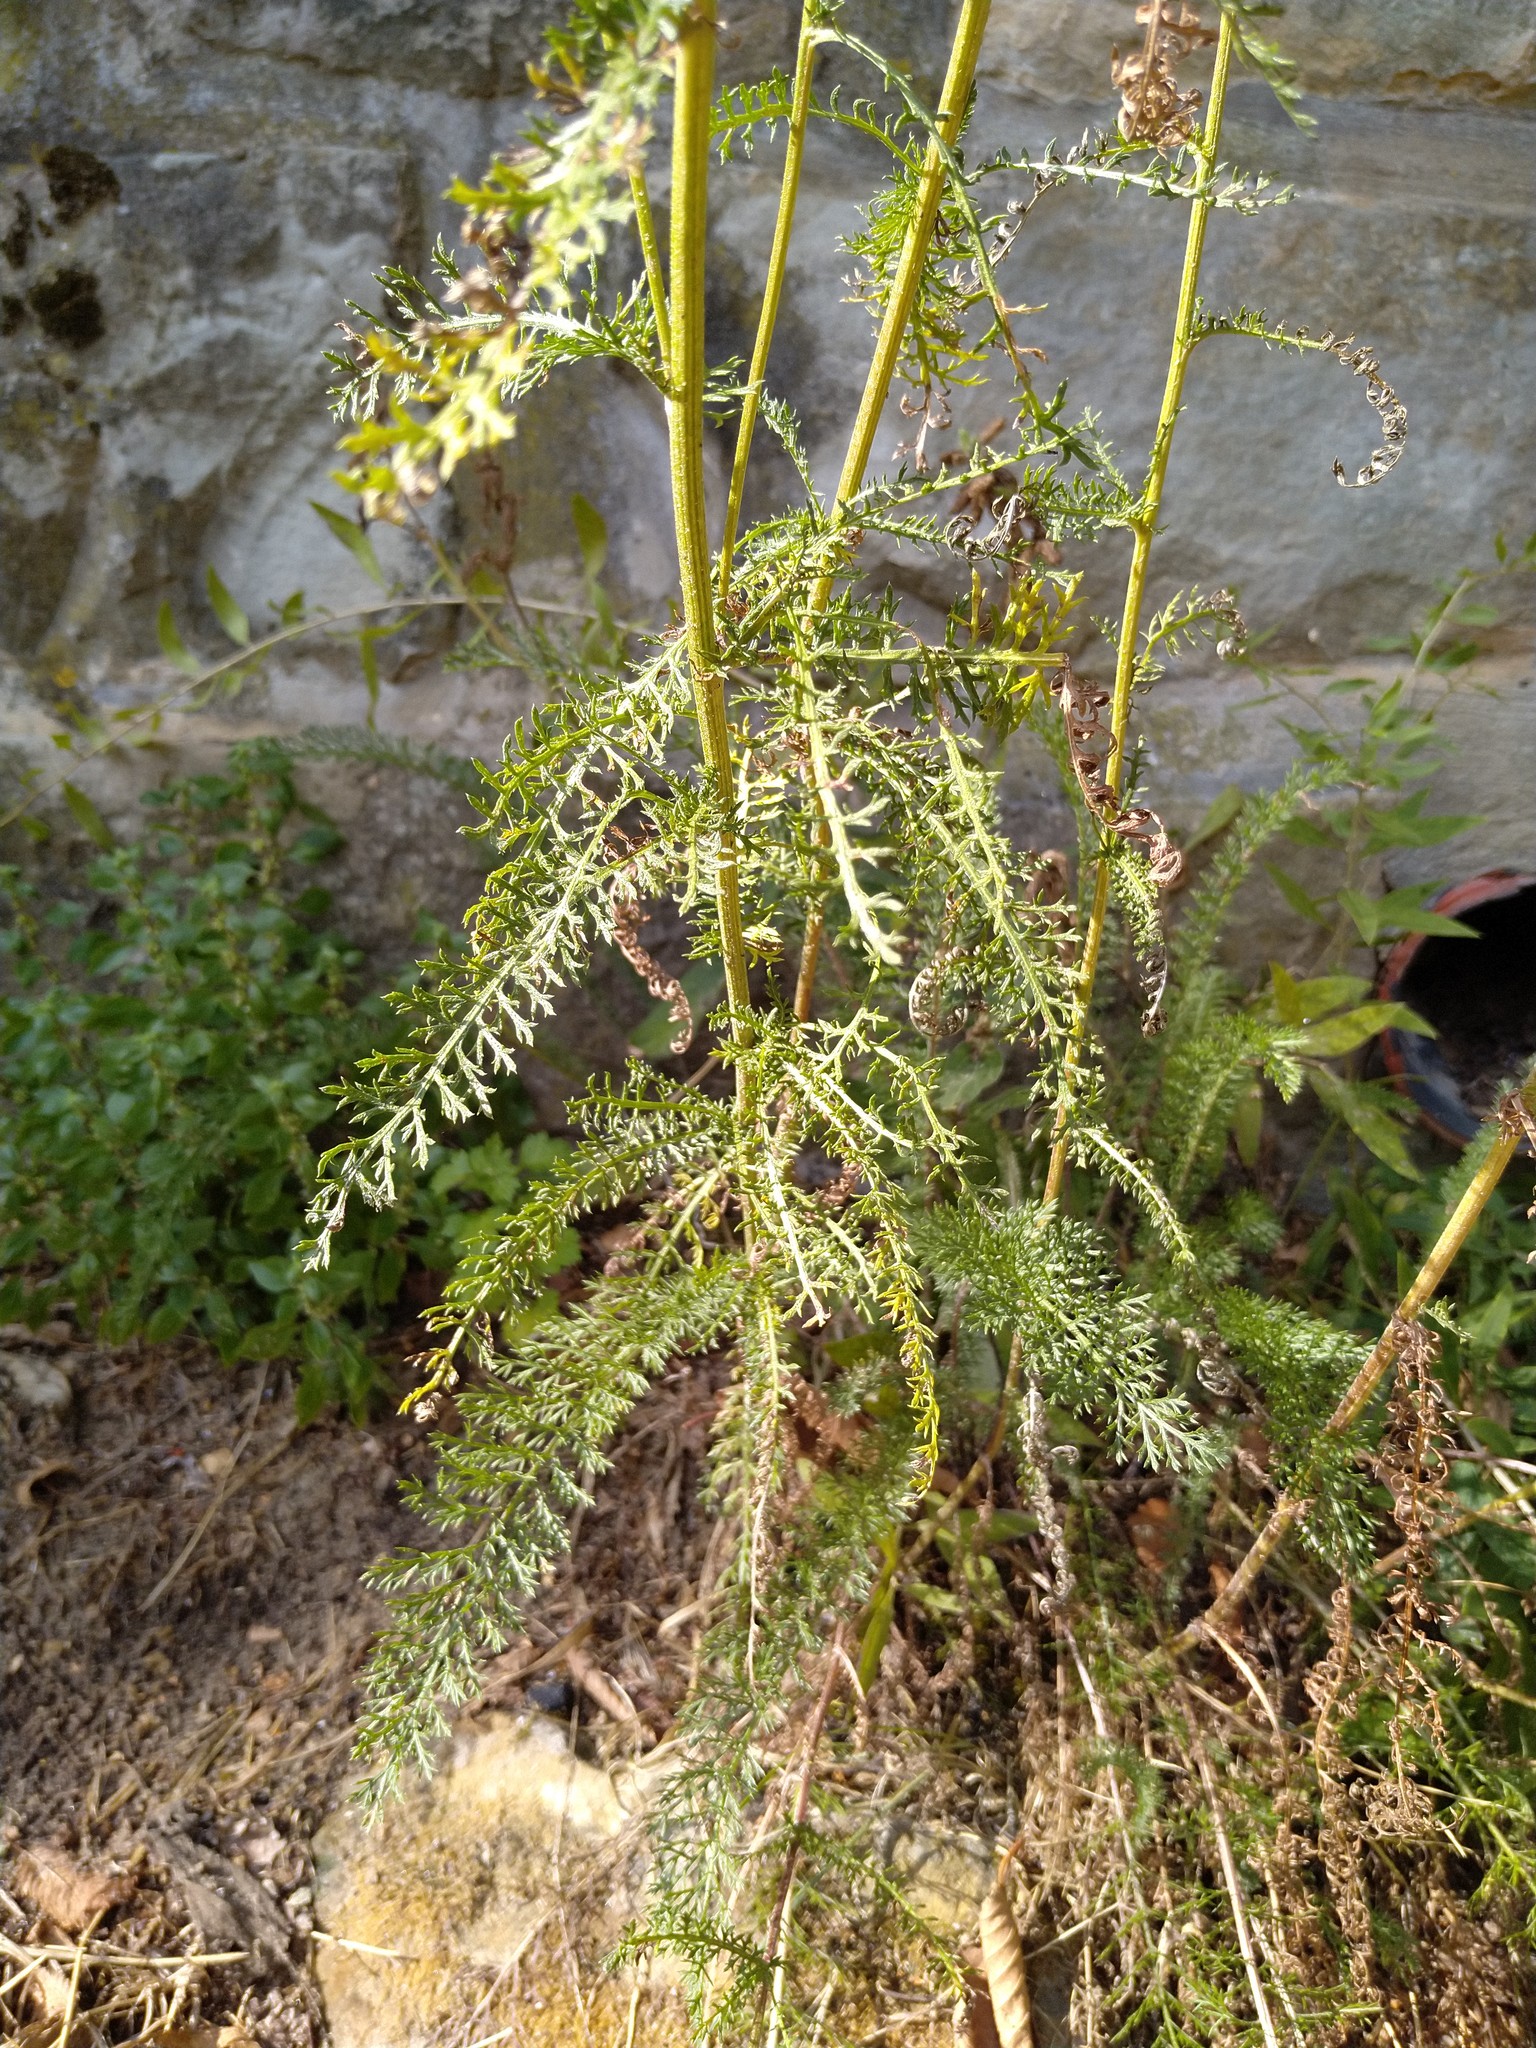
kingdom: Plantae
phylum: Tracheophyta
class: Magnoliopsida
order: Asterales
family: Asteraceae
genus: Achillea
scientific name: Achillea millefolium
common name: Yarrow
